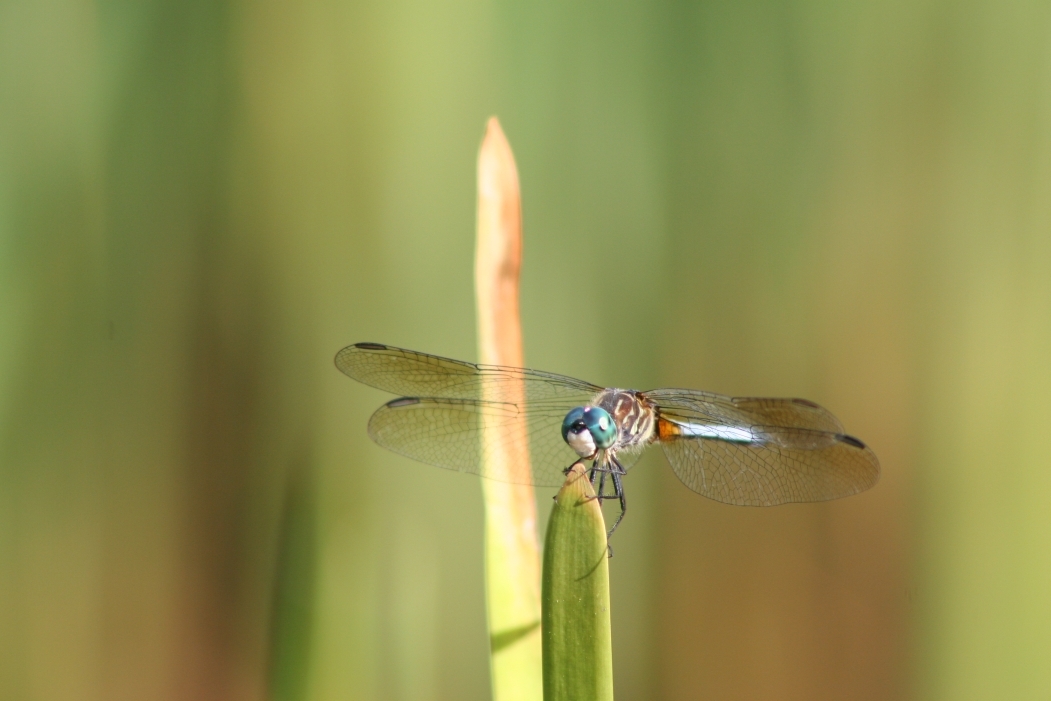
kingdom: Animalia
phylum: Arthropoda
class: Insecta
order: Odonata
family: Libellulidae
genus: Pachydiplax
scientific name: Pachydiplax longipennis
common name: Blue dasher
